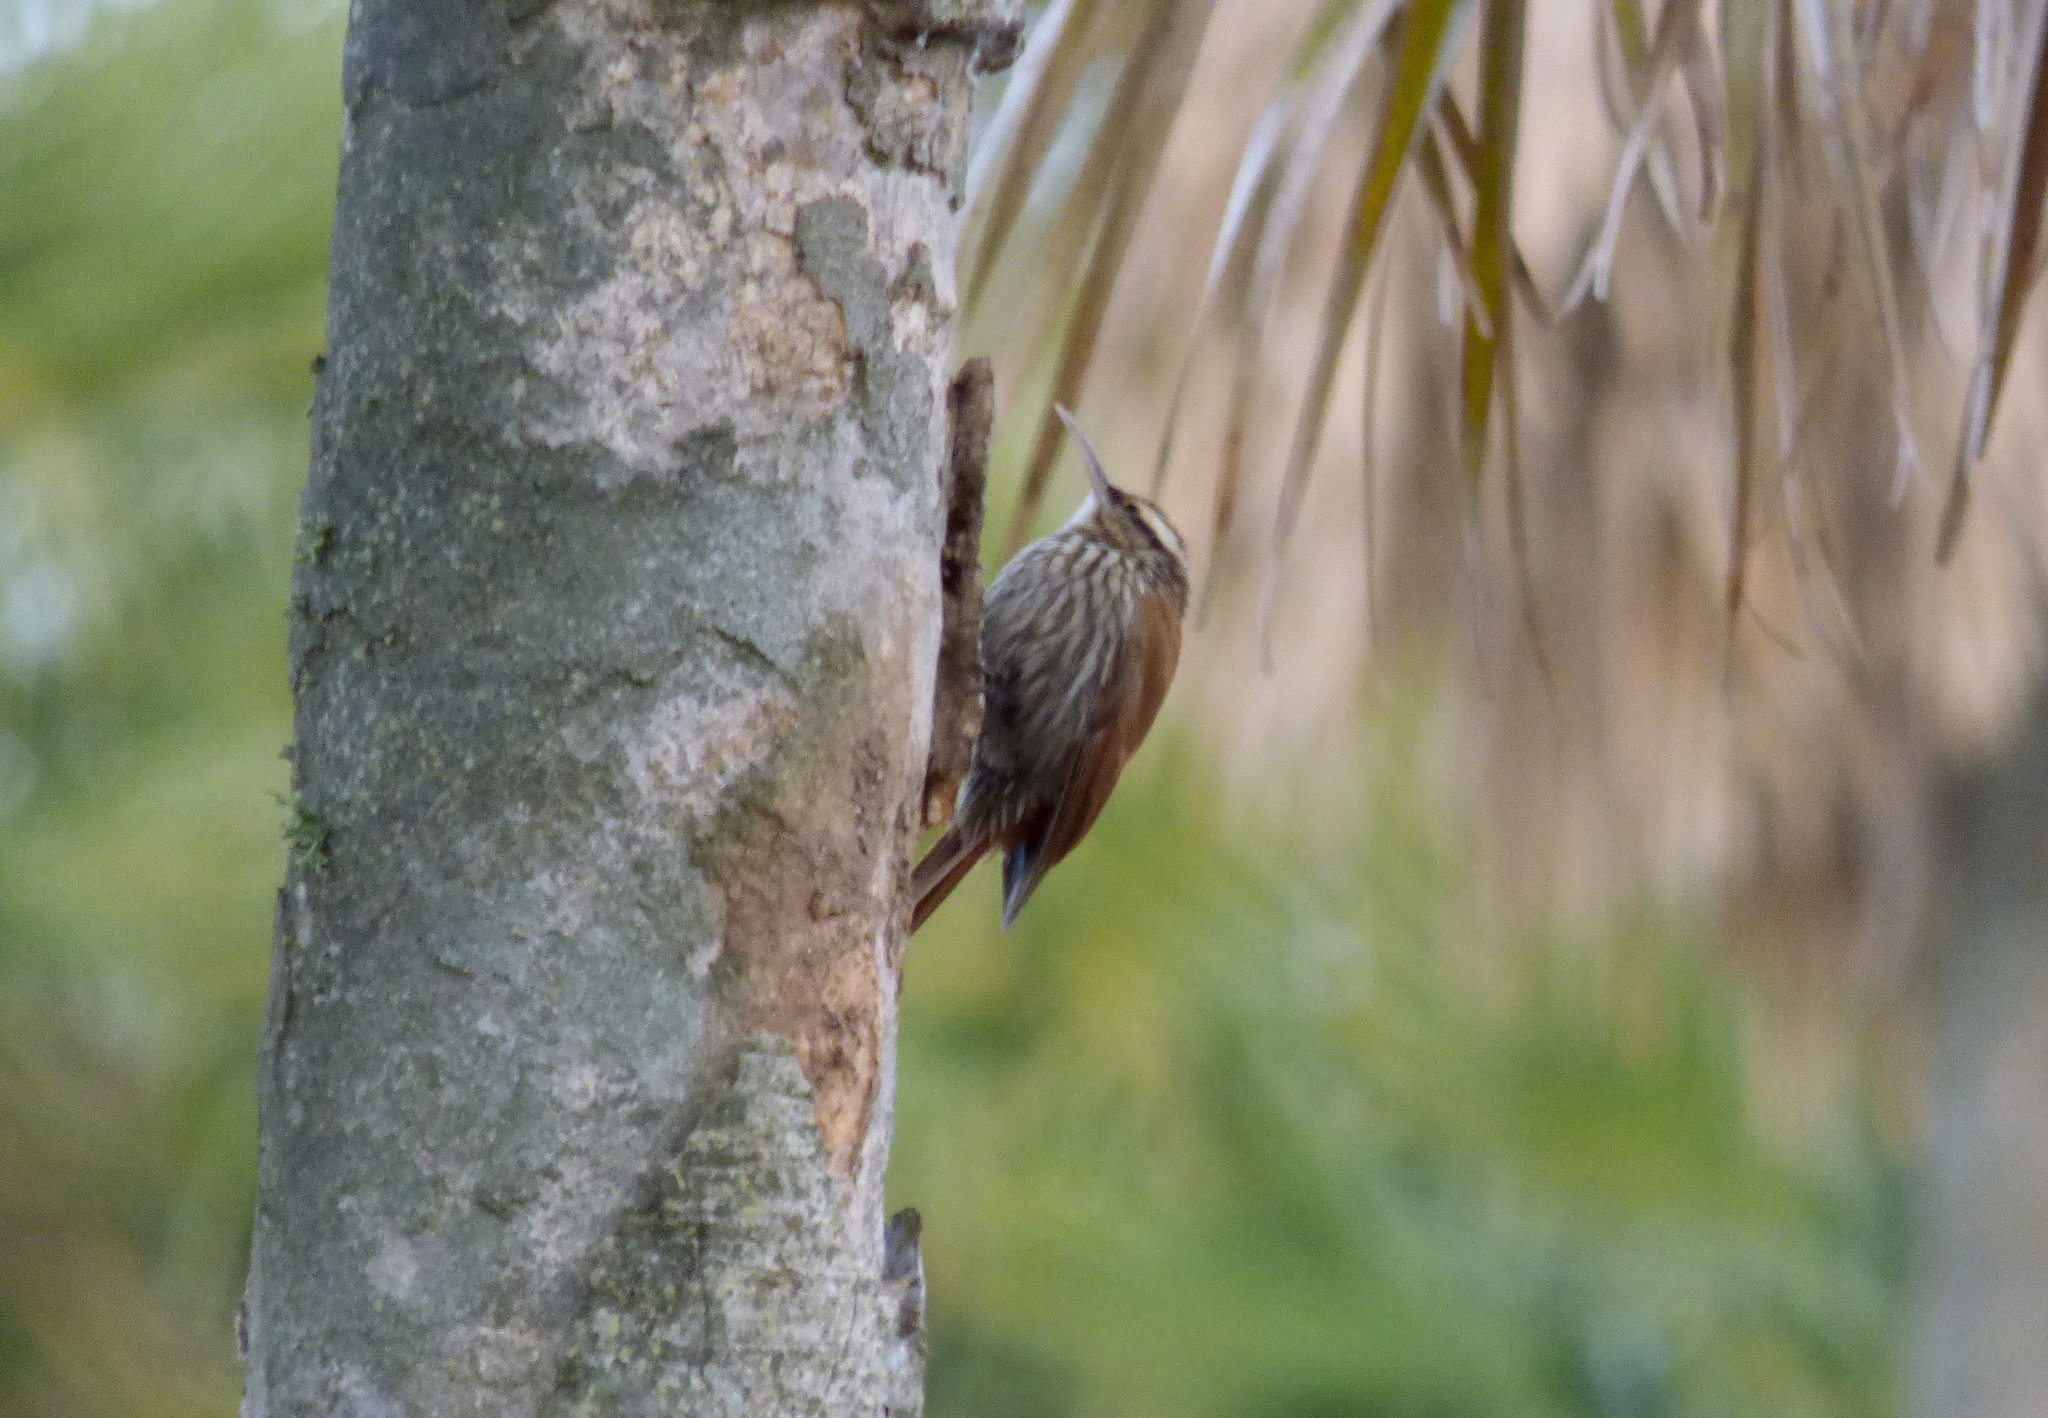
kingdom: Animalia
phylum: Chordata
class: Aves
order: Passeriformes
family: Furnariidae
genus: Lepidocolaptes
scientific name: Lepidocolaptes angustirostris
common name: Narrow-billed woodcreeper
